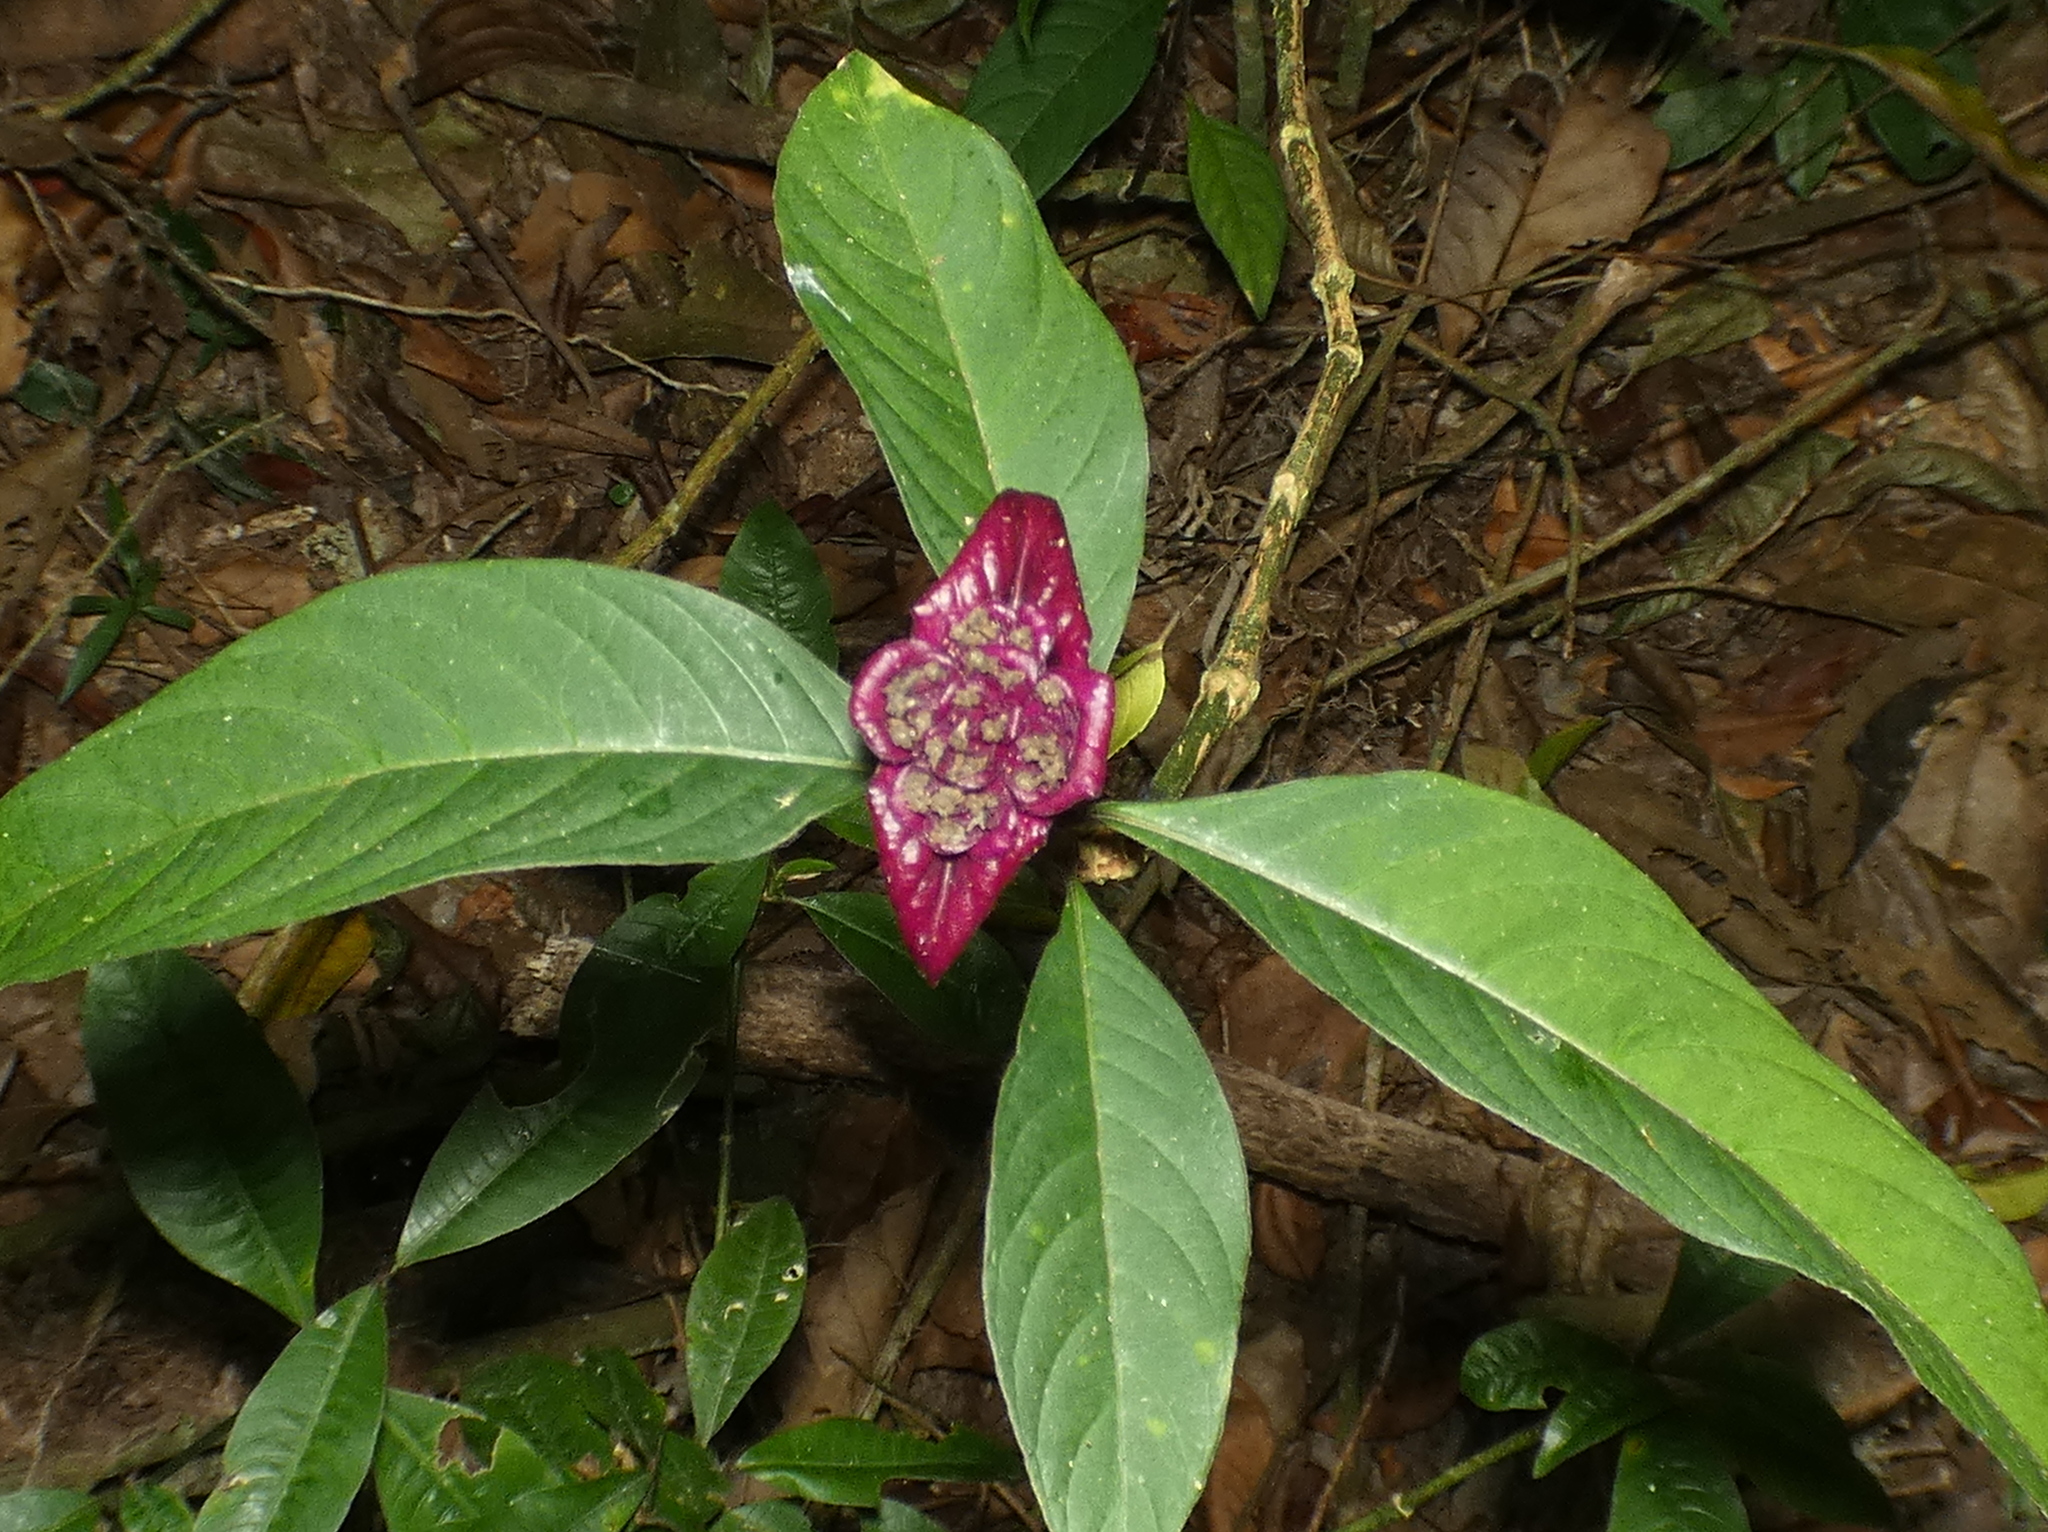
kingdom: Plantae
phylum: Tracheophyta
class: Magnoliopsida
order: Gentianales
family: Rubiaceae
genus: Palicourea
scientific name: Palicourea colorata
